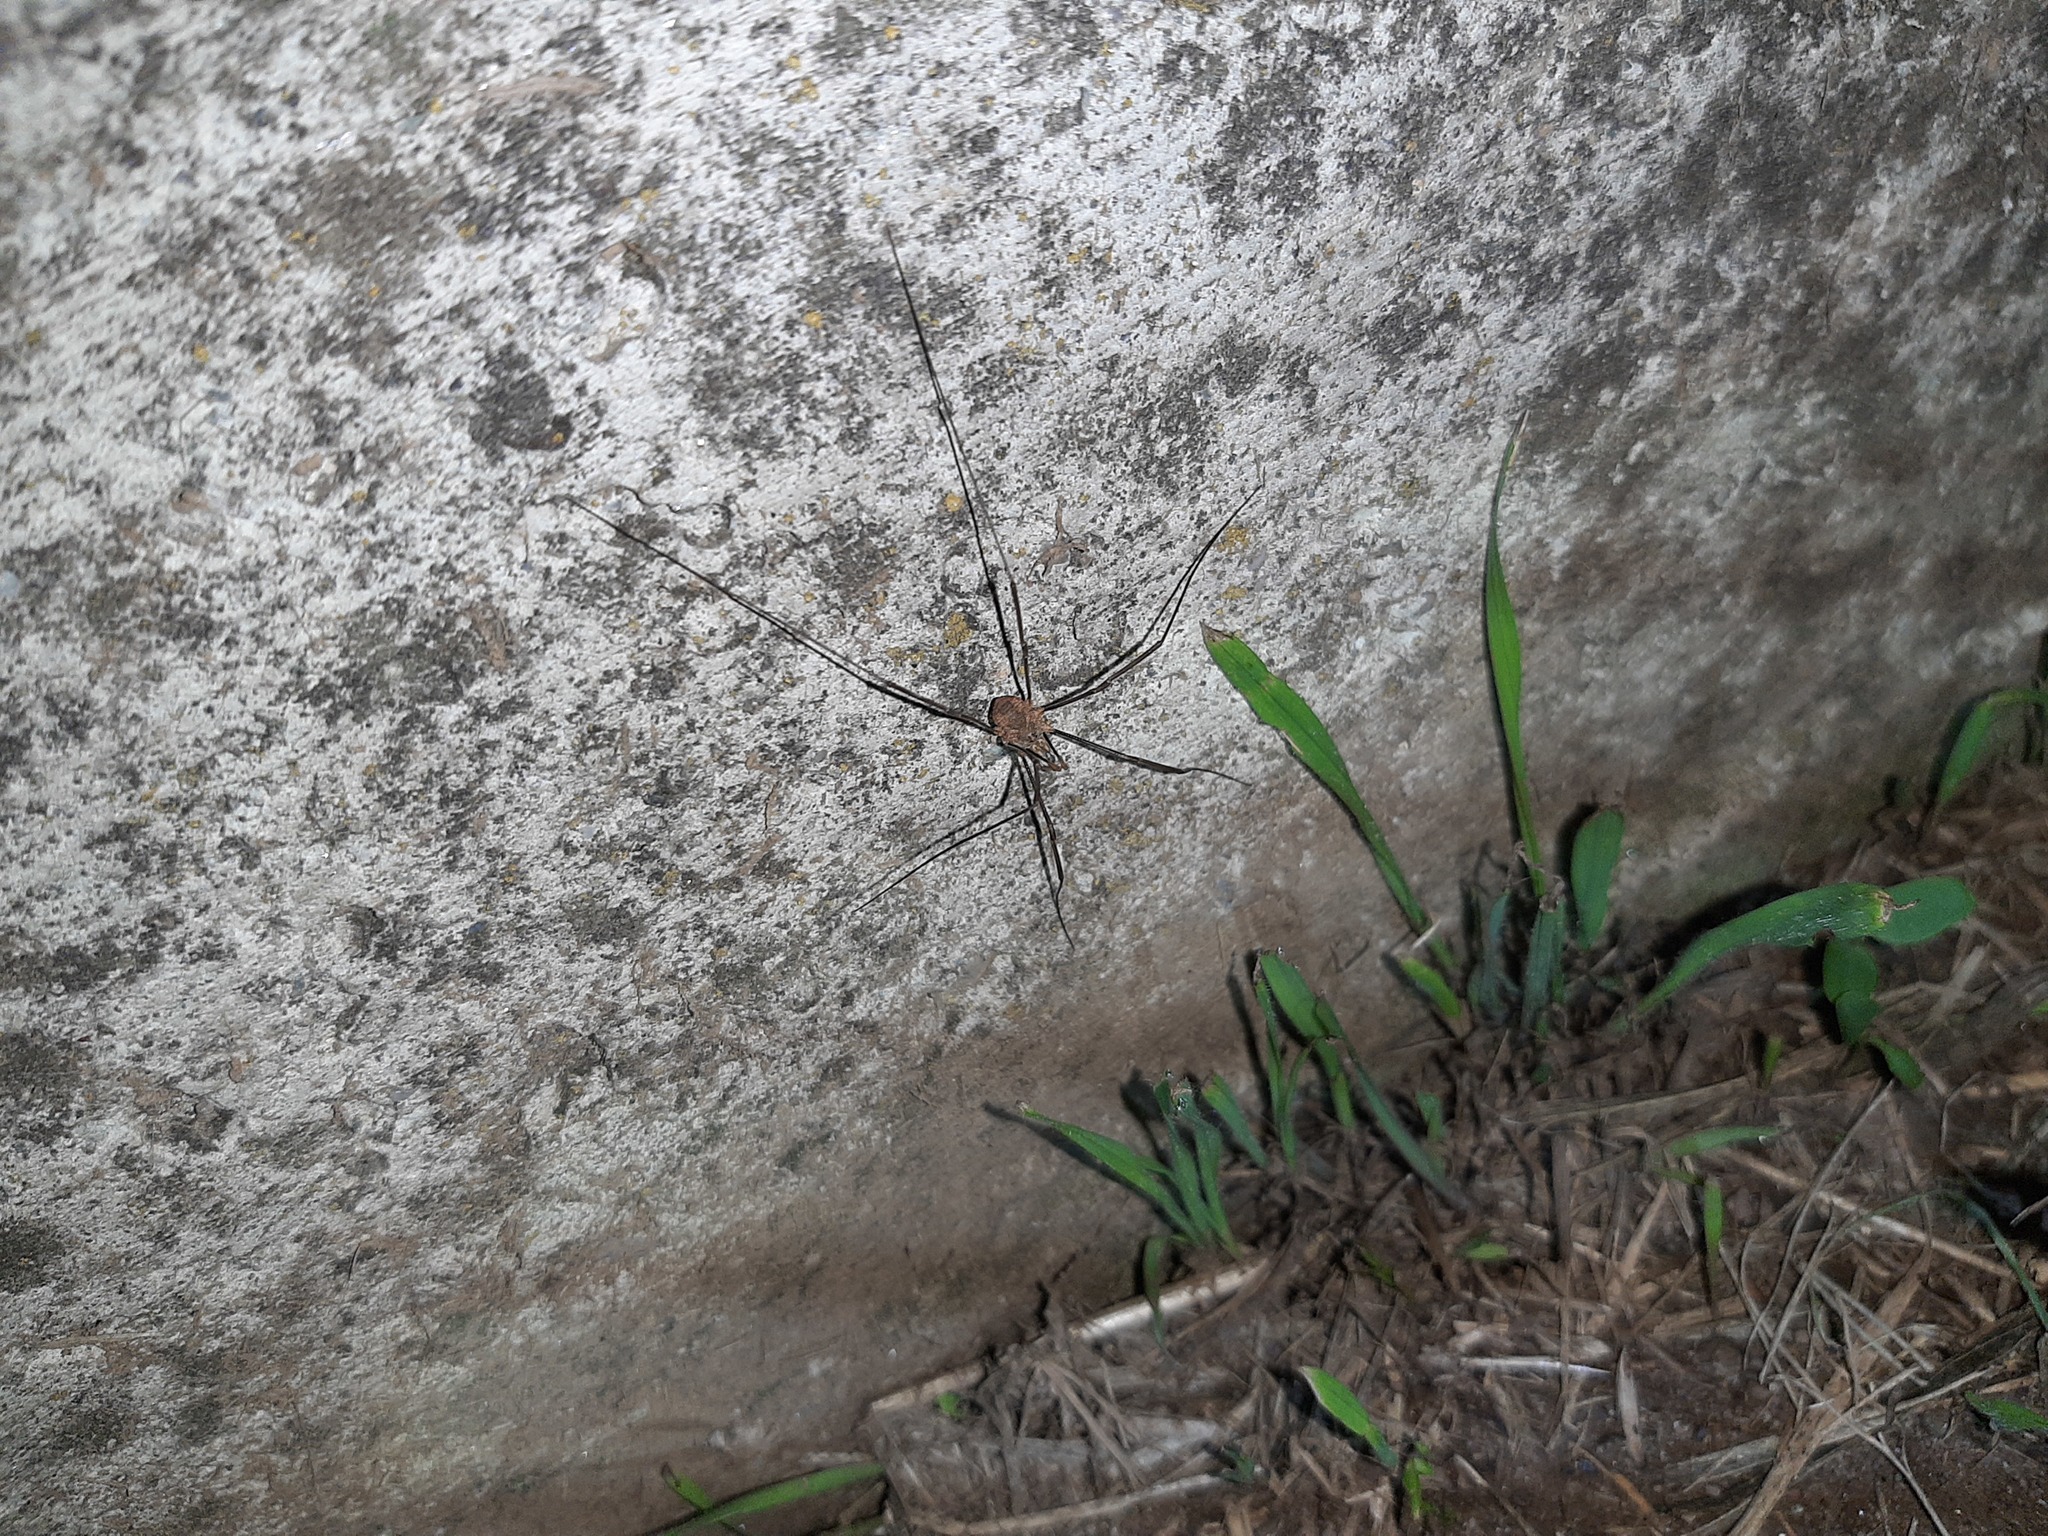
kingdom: Animalia
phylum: Arthropoda
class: Arachnida
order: Opiliones
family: Phalangiidae
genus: Phalangium
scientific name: Phalangium opilio
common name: Daddy longleg
